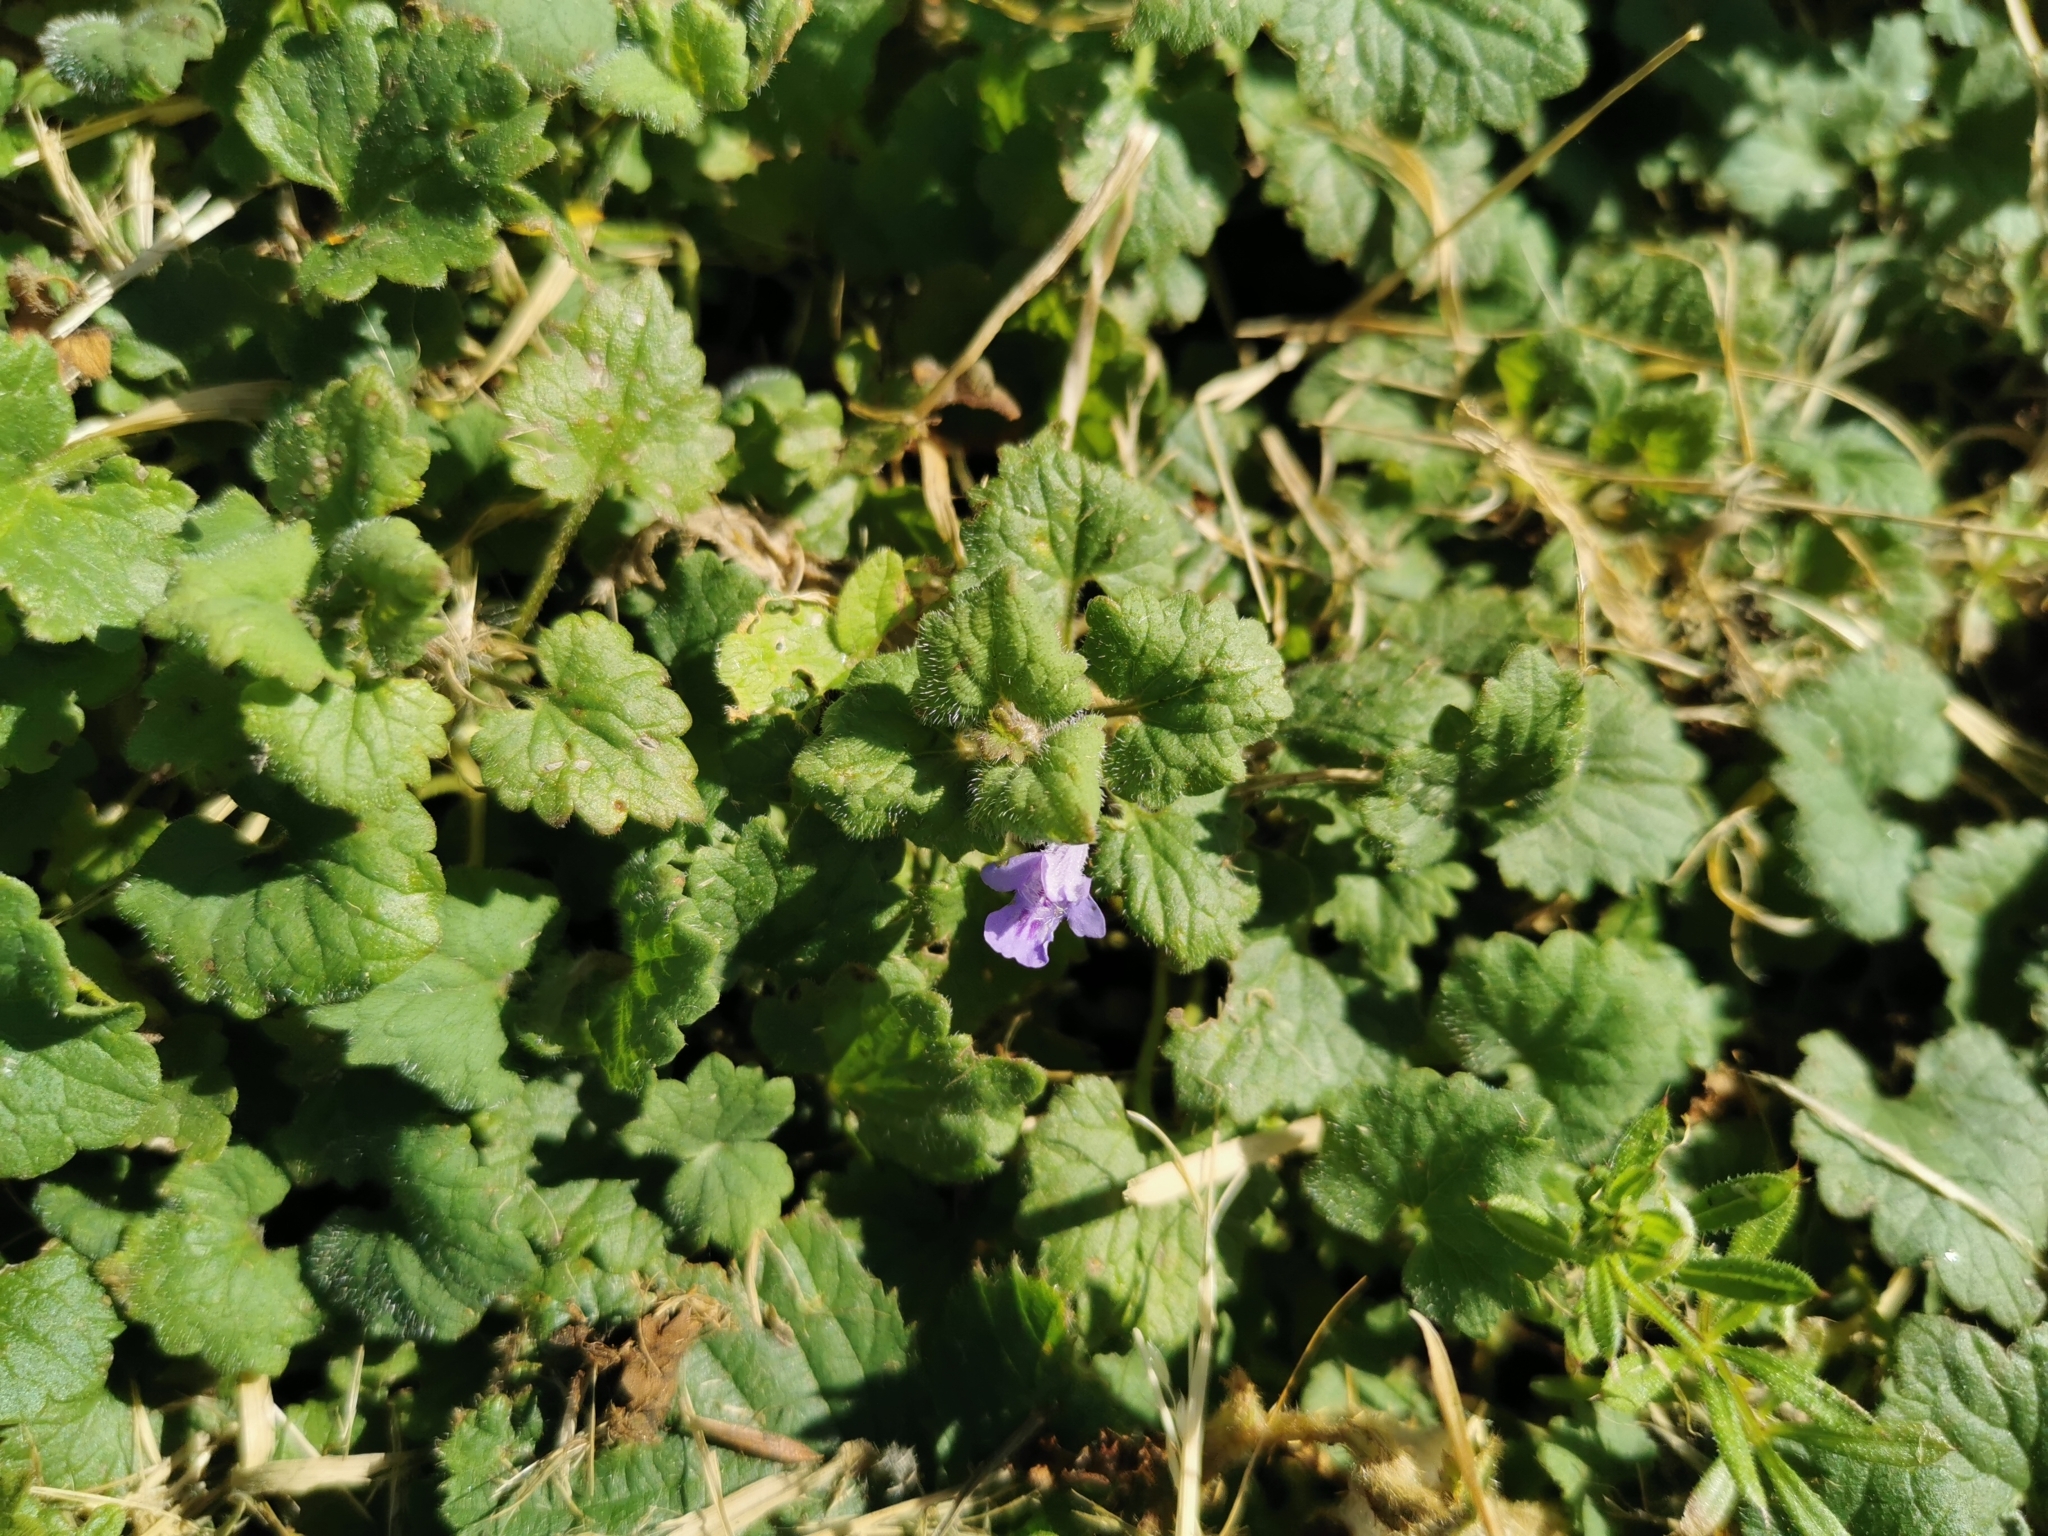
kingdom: Plantae
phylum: Tracheophyta
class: Magnoliopsida
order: Lamiales
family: Lamiaceae
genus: Glechoma
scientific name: Glechoma hederacea
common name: Ground ivy
